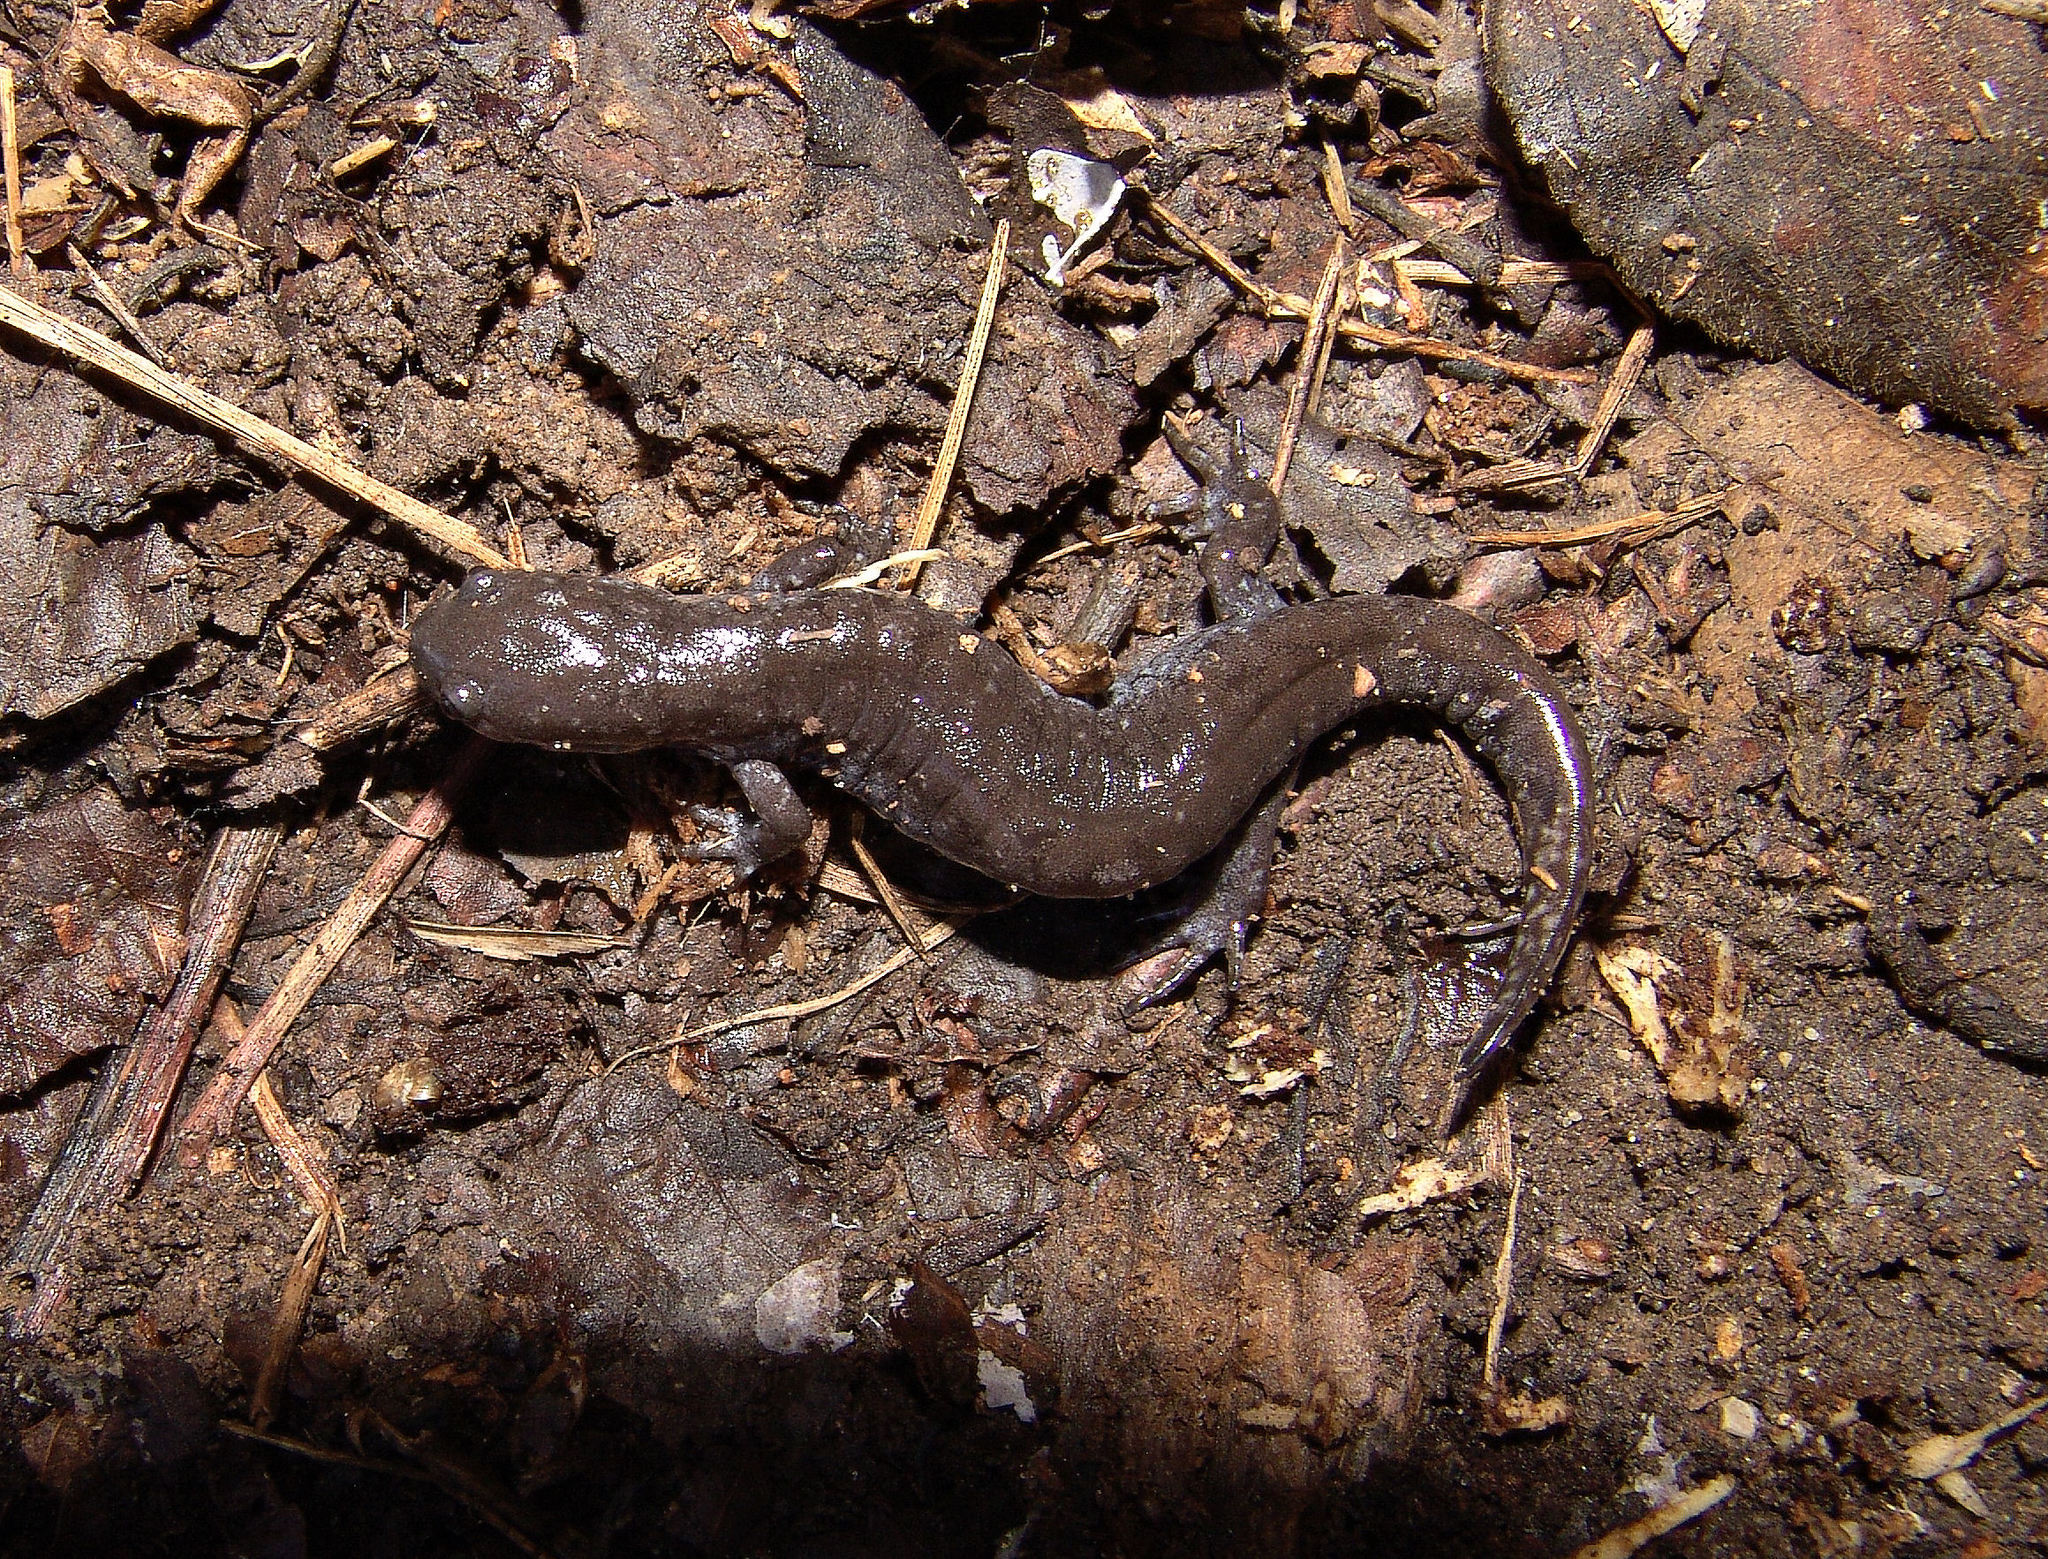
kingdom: Animalia
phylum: Chordata
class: Amphibia
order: Caudata
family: Ambystomatidae
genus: Ambystoma
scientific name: Ambystoma texanum
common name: Small-mouth salamander
